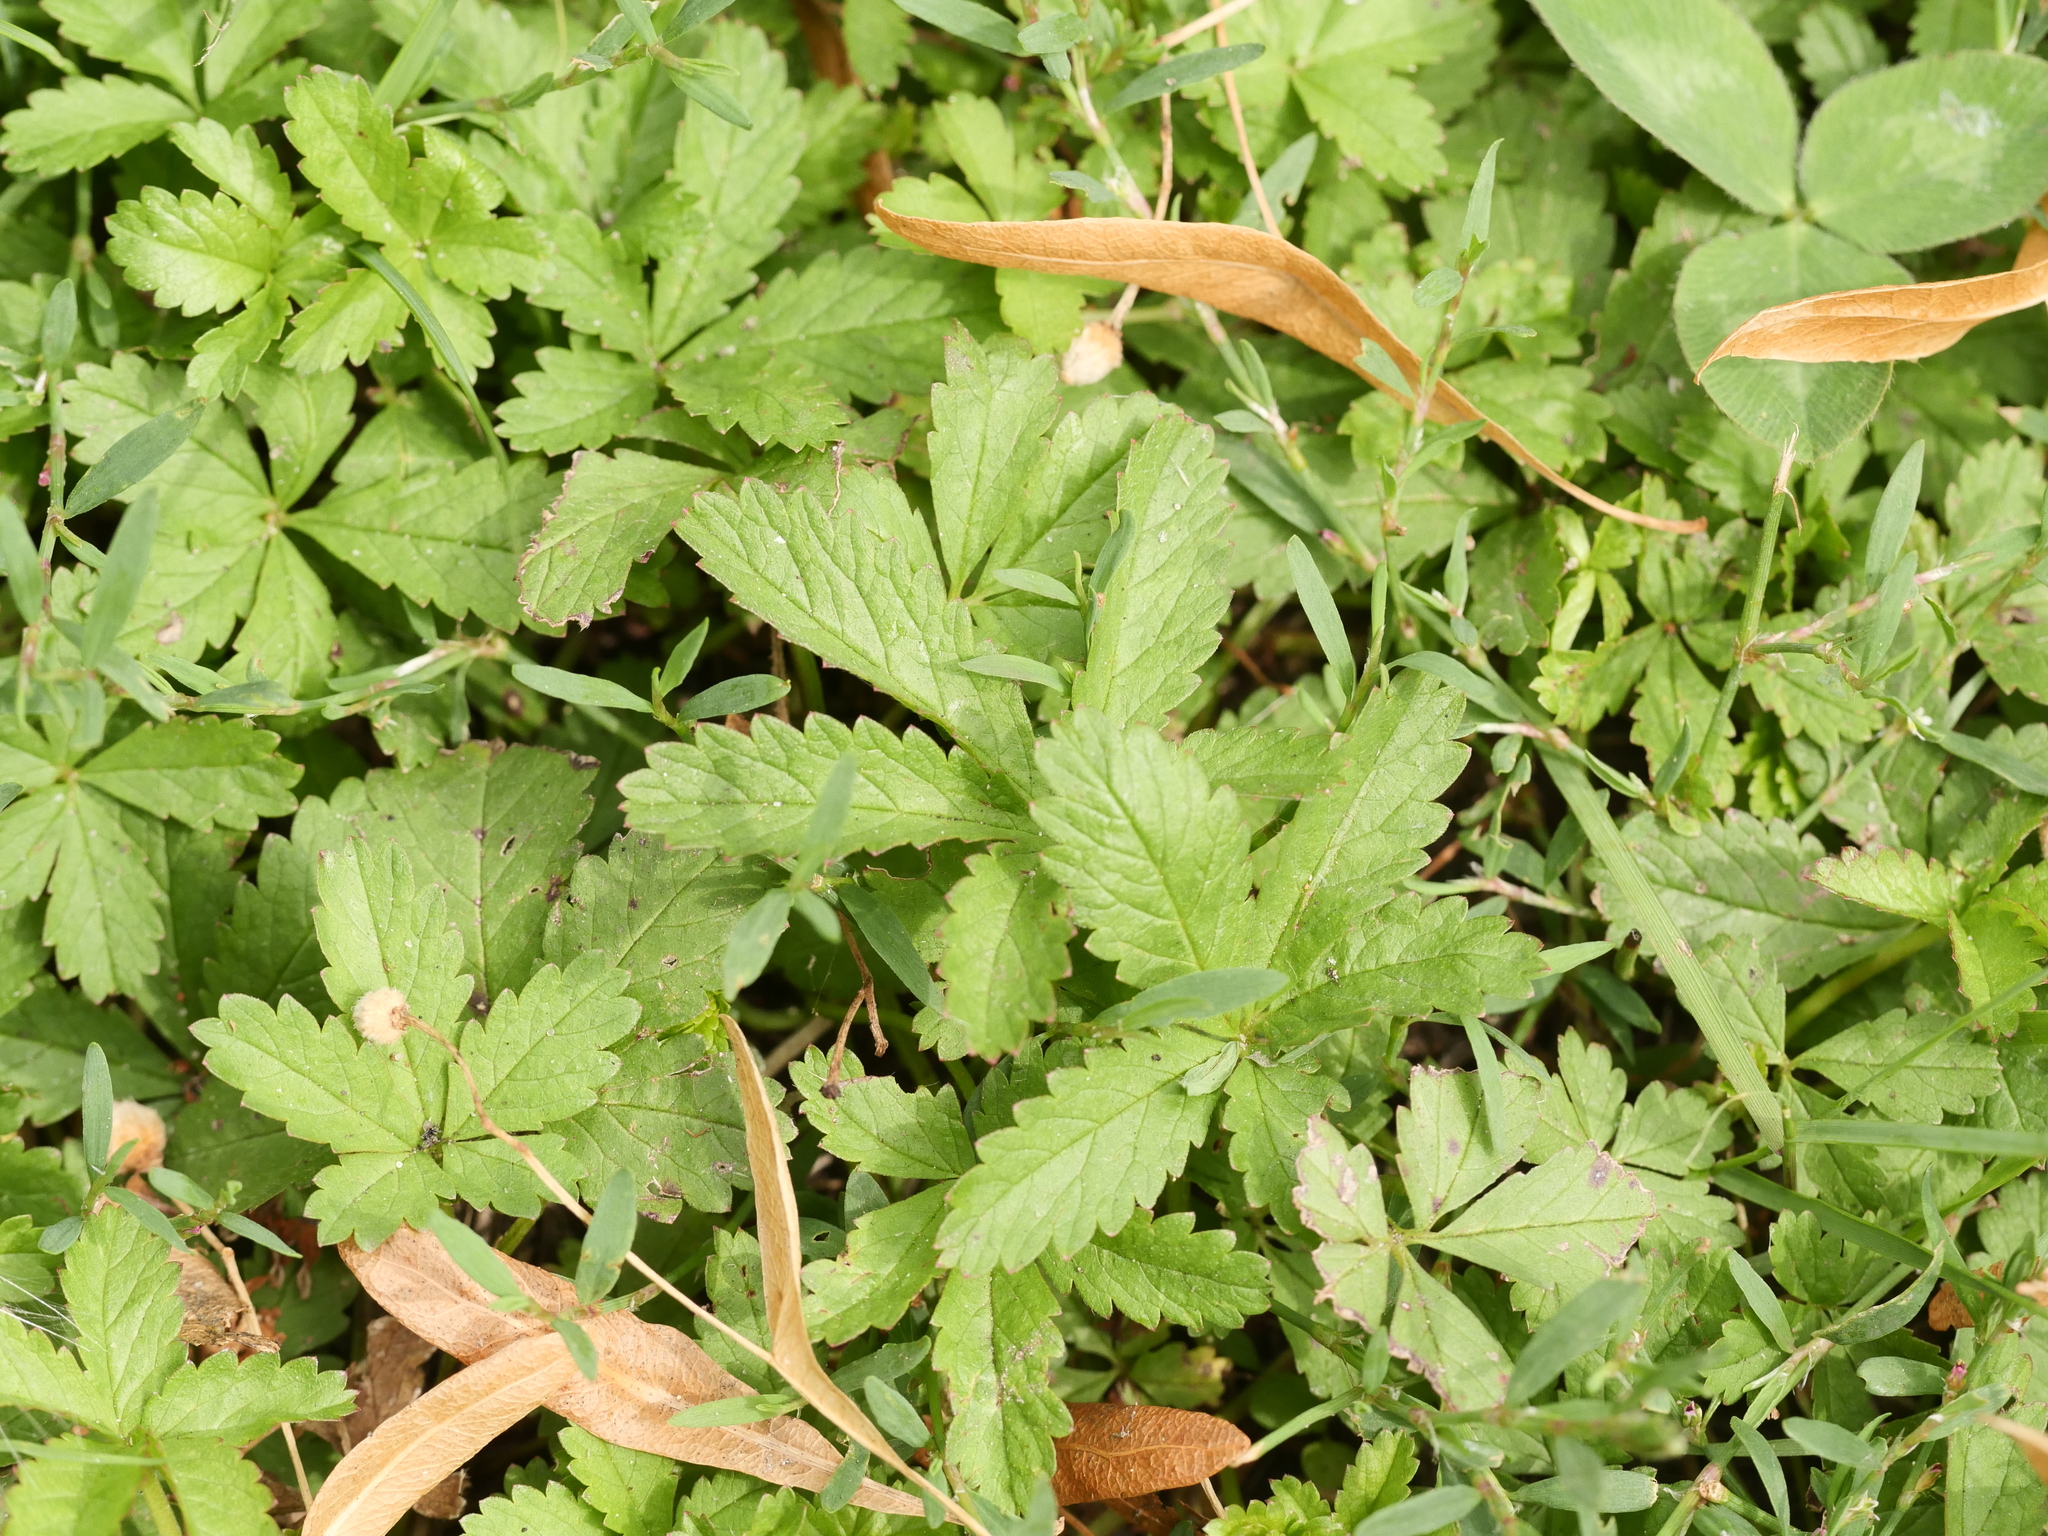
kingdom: Plantae
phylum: Tracheophyta
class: Magnoliopsida
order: Rosales
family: Rosaceae
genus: Potentilla
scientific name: Potentilla reptans
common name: Creeping cinquefoil
